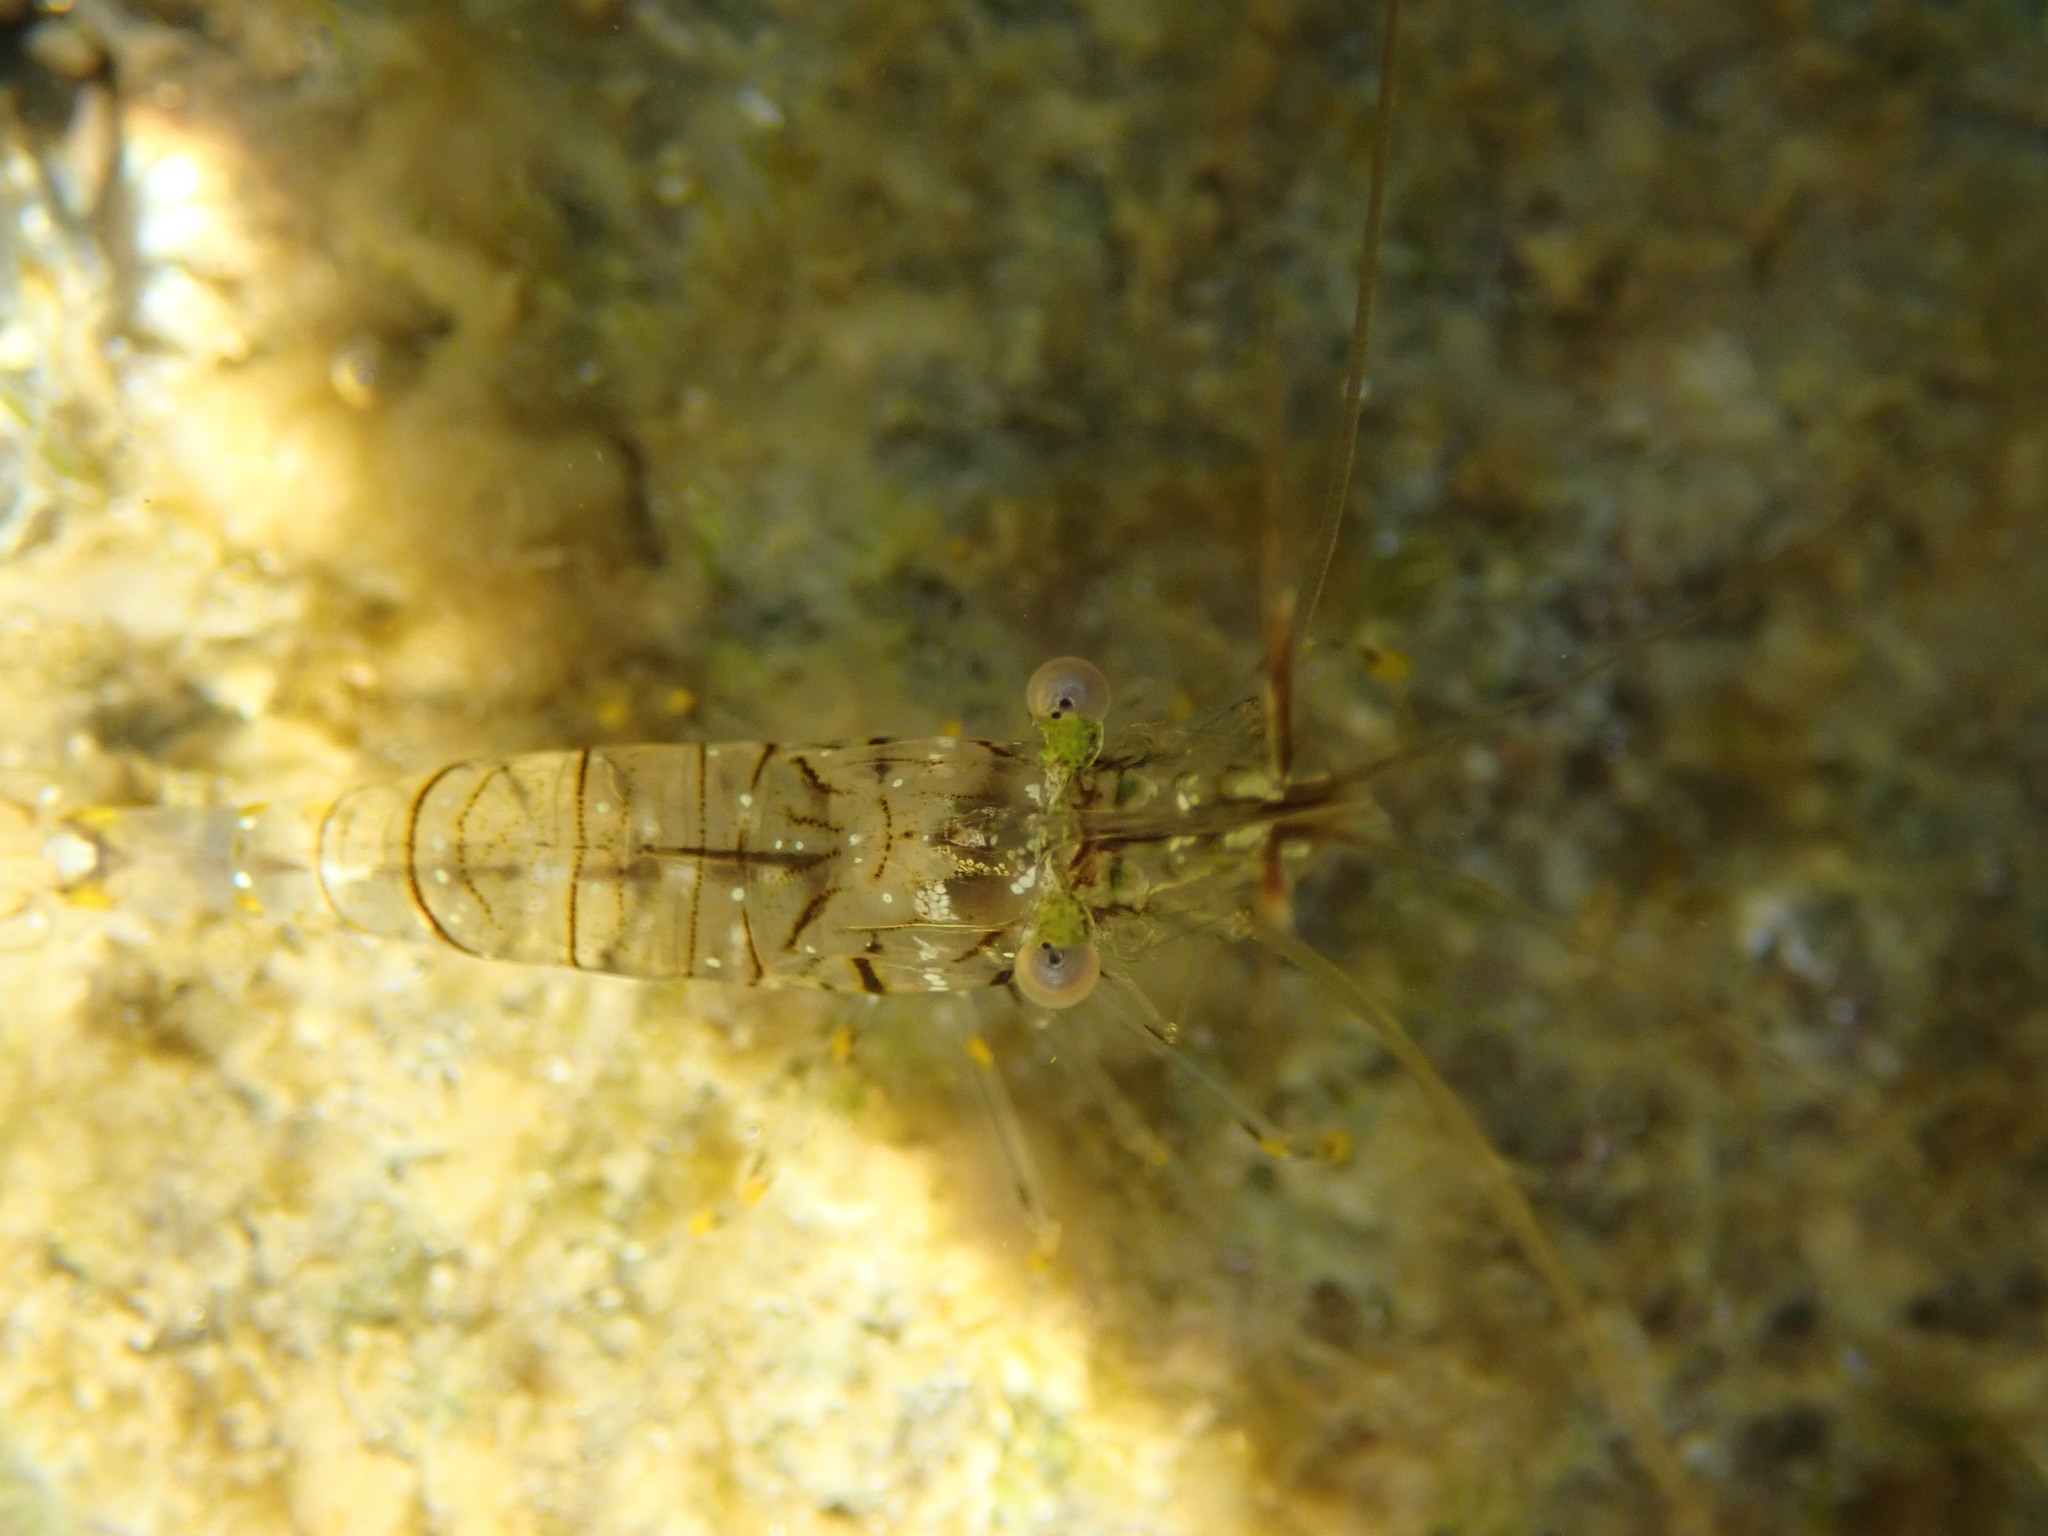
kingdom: Animalia
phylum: Arthropoda
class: Malacostraca
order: Decapoda
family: Palaemonidae
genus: Palaemon
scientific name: Palaemon elegans
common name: Grass prawm
